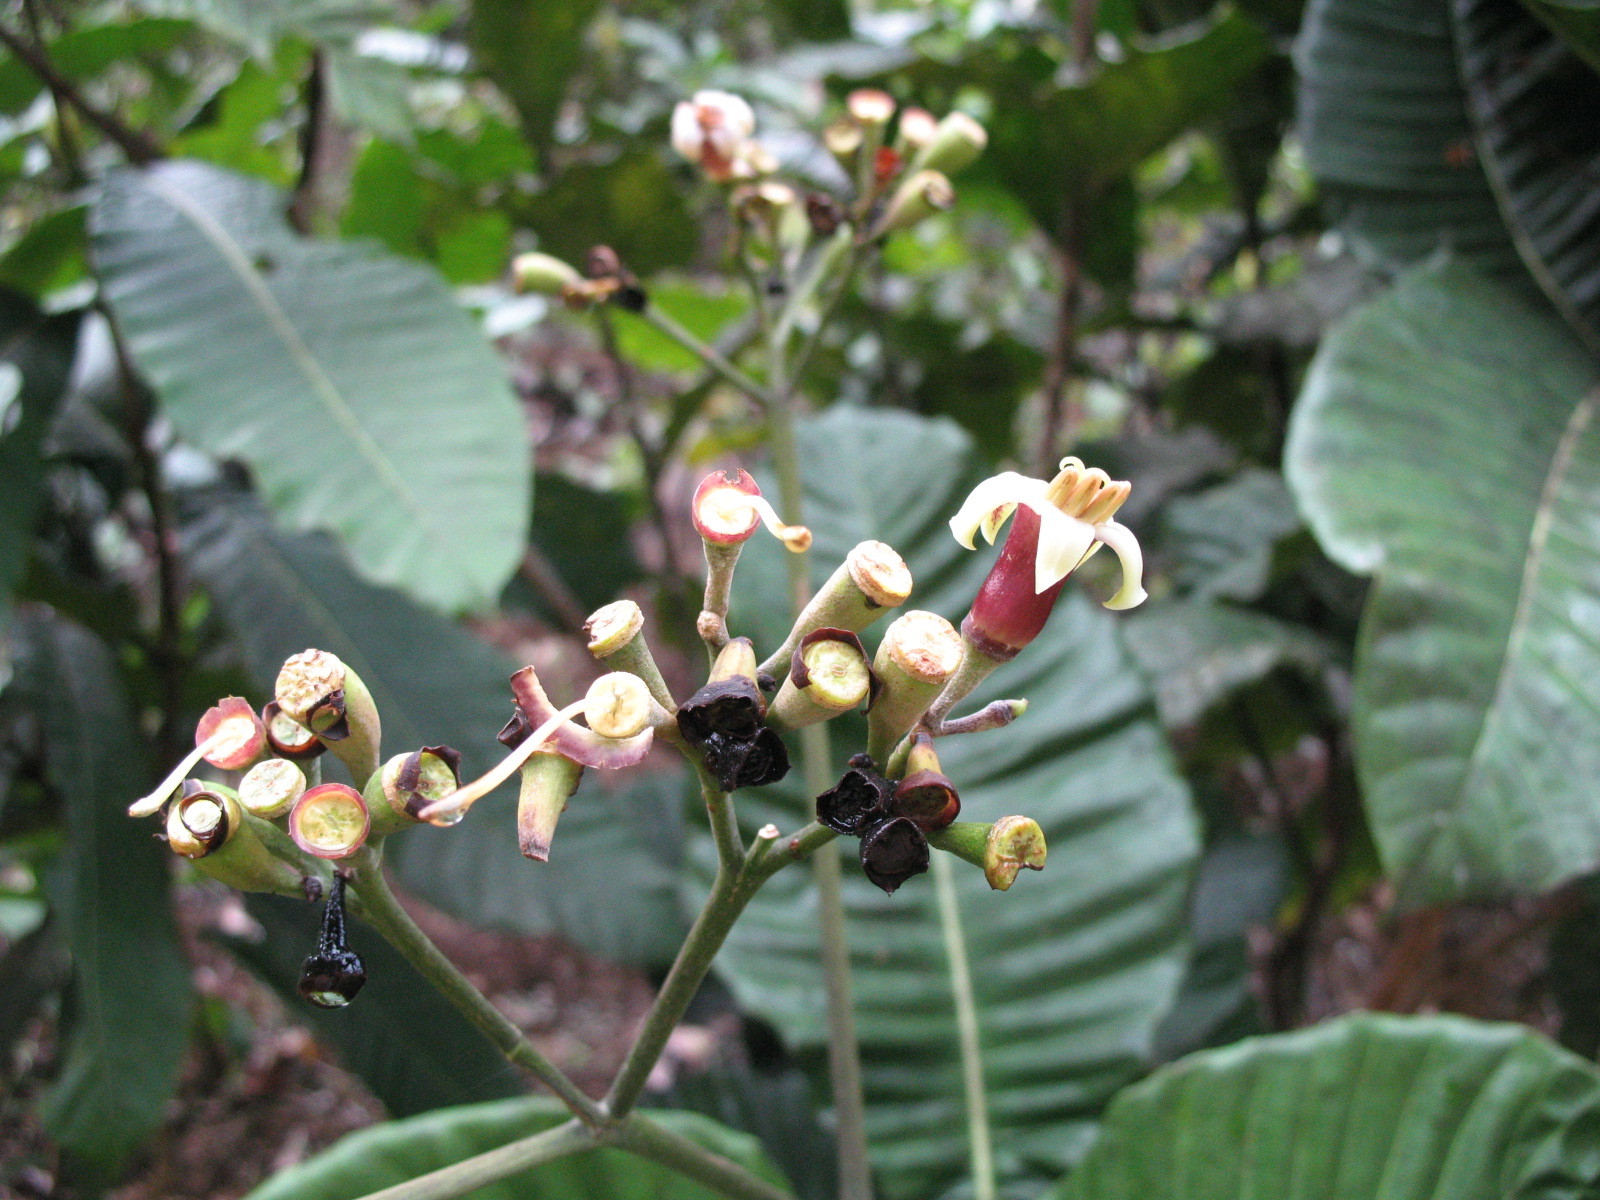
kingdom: Plantae
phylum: Tracheophyta
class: Magnoliopsida
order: Gentianales
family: Rubiaceae
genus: Condaminea
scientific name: Condaminea corymbosa
